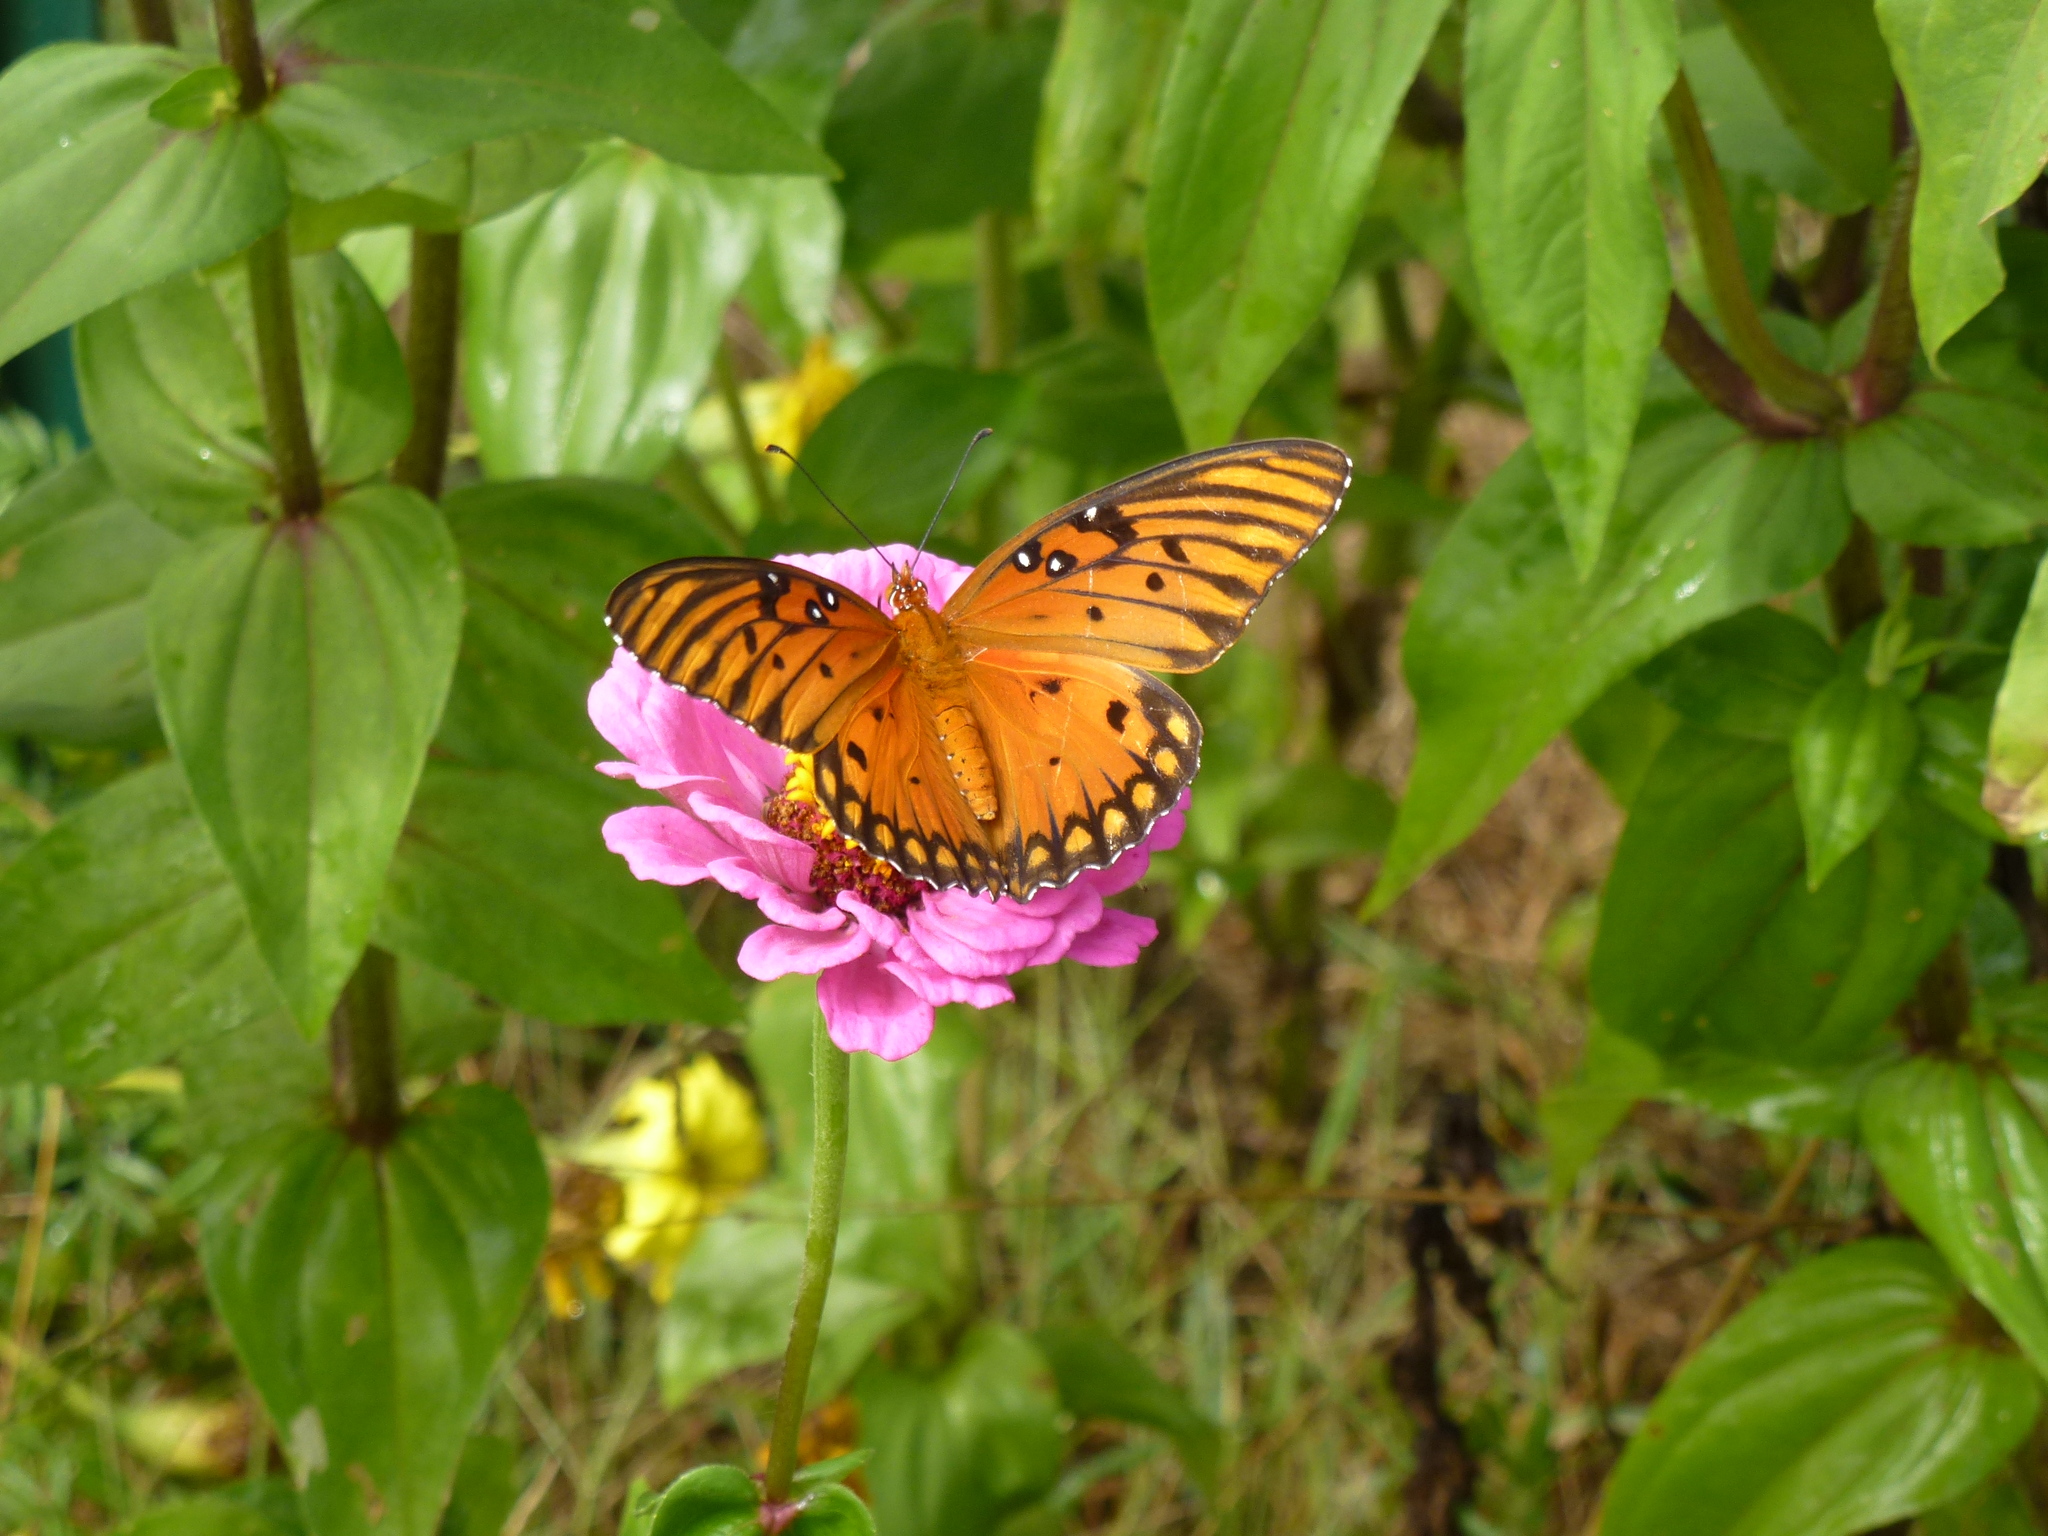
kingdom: Animalia
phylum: Arthropoda
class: Insecta
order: Lepidoptera
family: Nymphalidae
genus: Dione
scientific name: Dione vanillae
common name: Gulf fritillary
